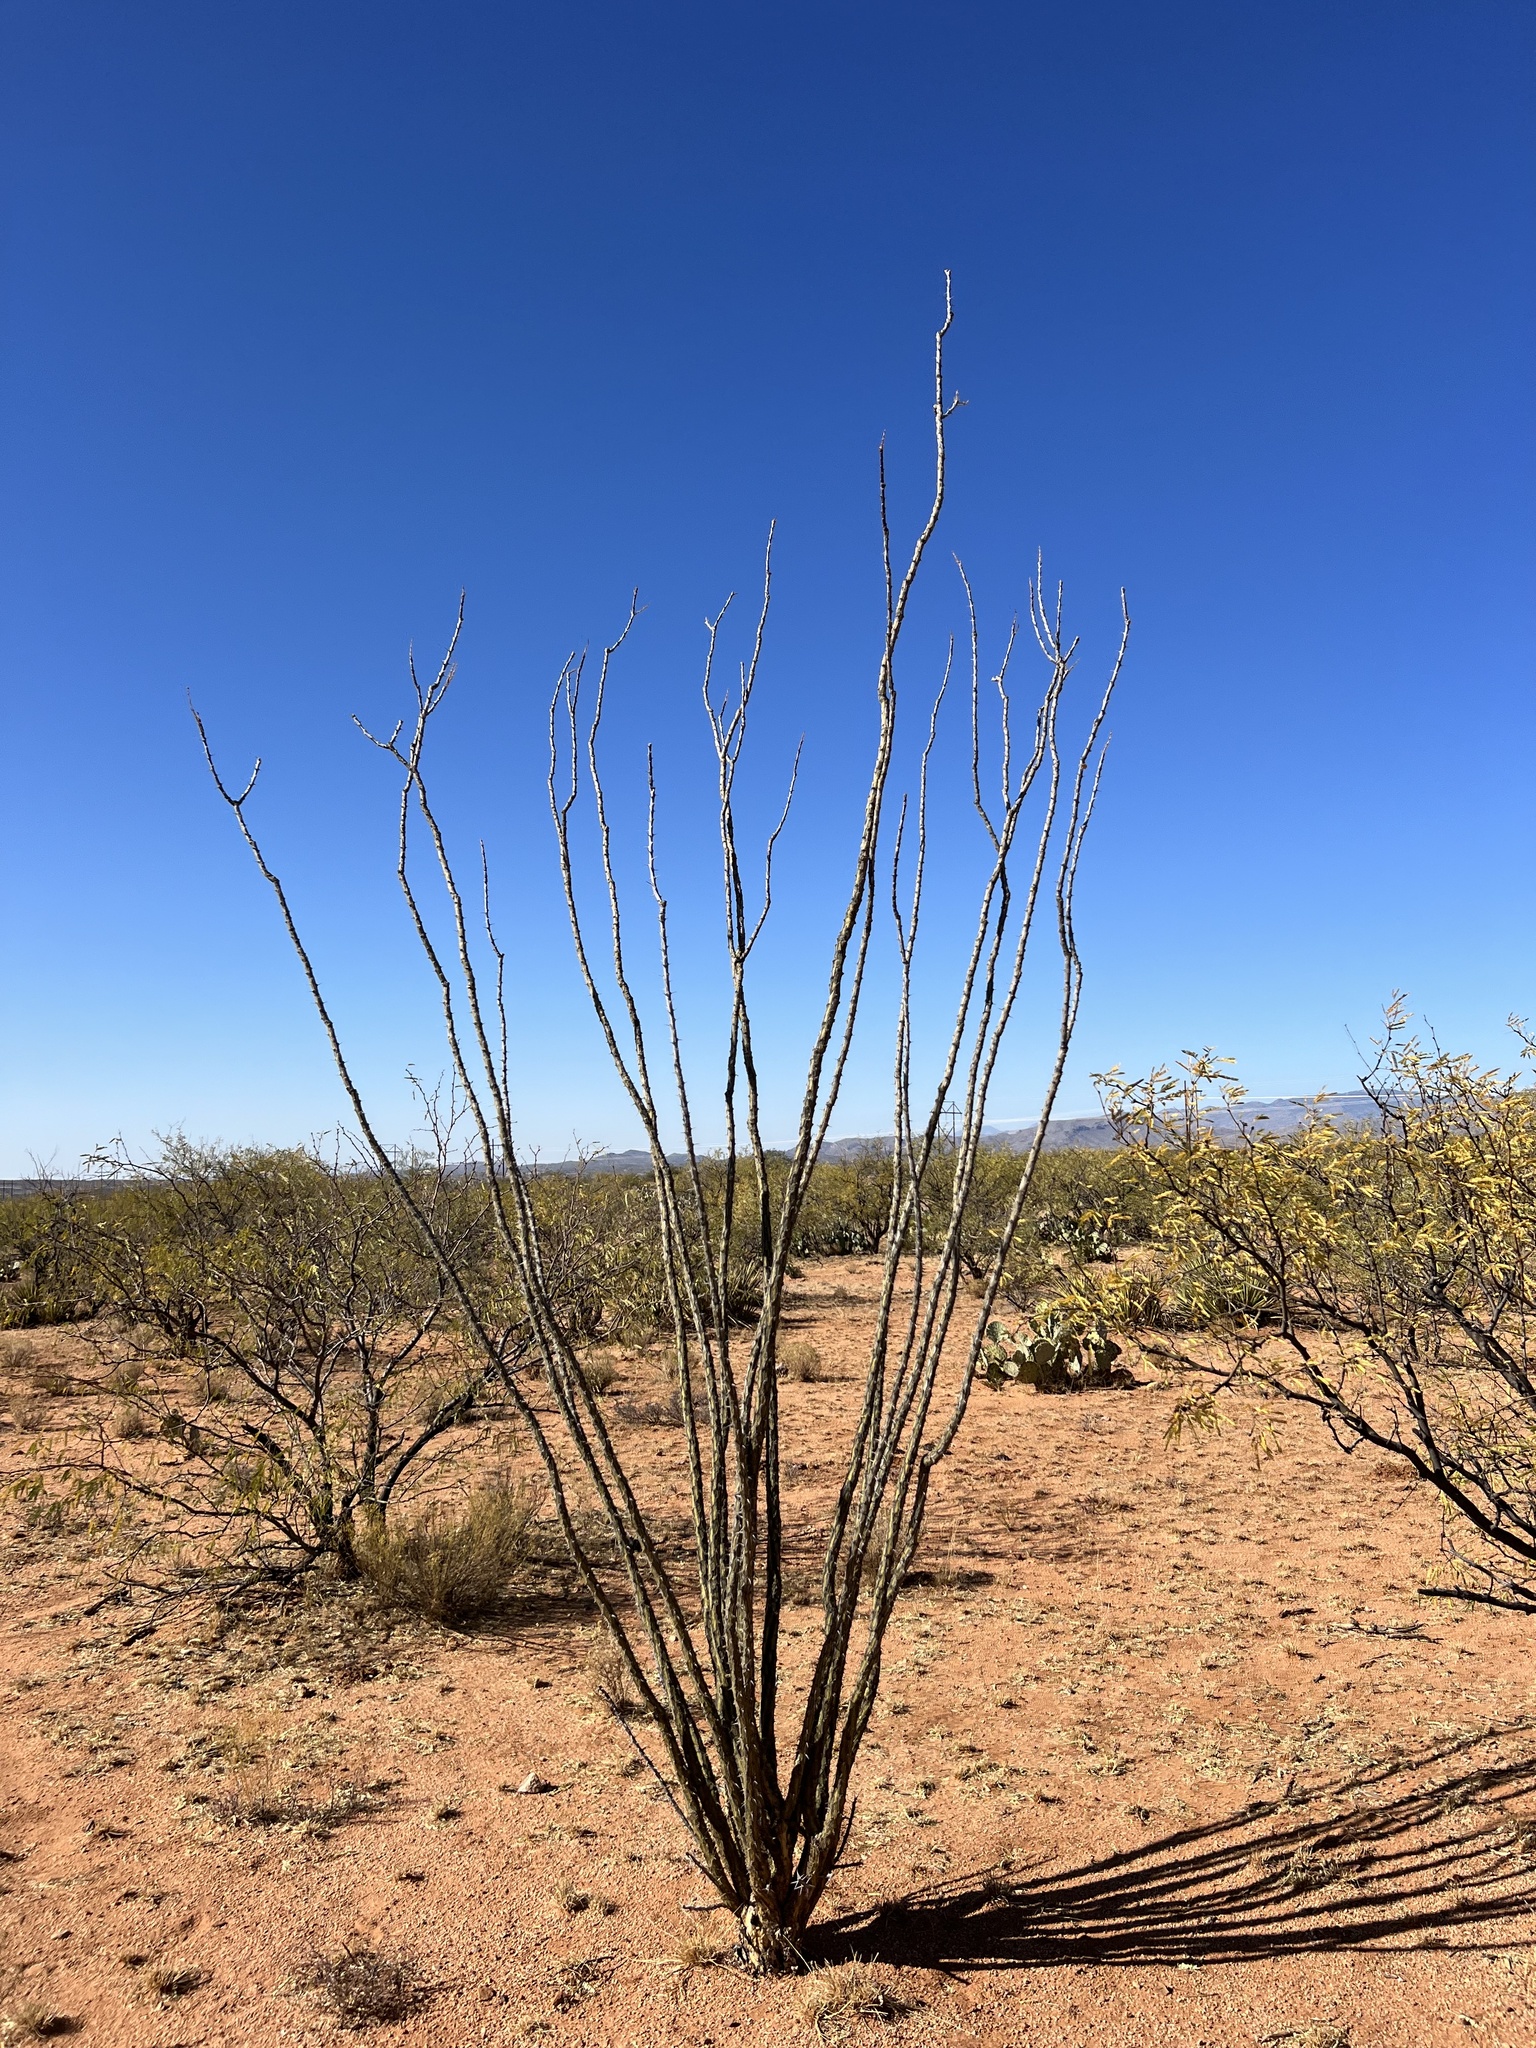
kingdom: Plantae
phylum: Tracheophyta
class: Magnoliopsida
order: Ericales
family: Fouquieriaceae
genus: Fouquieria
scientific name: Fouquieria splendens
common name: Vine-cactus
